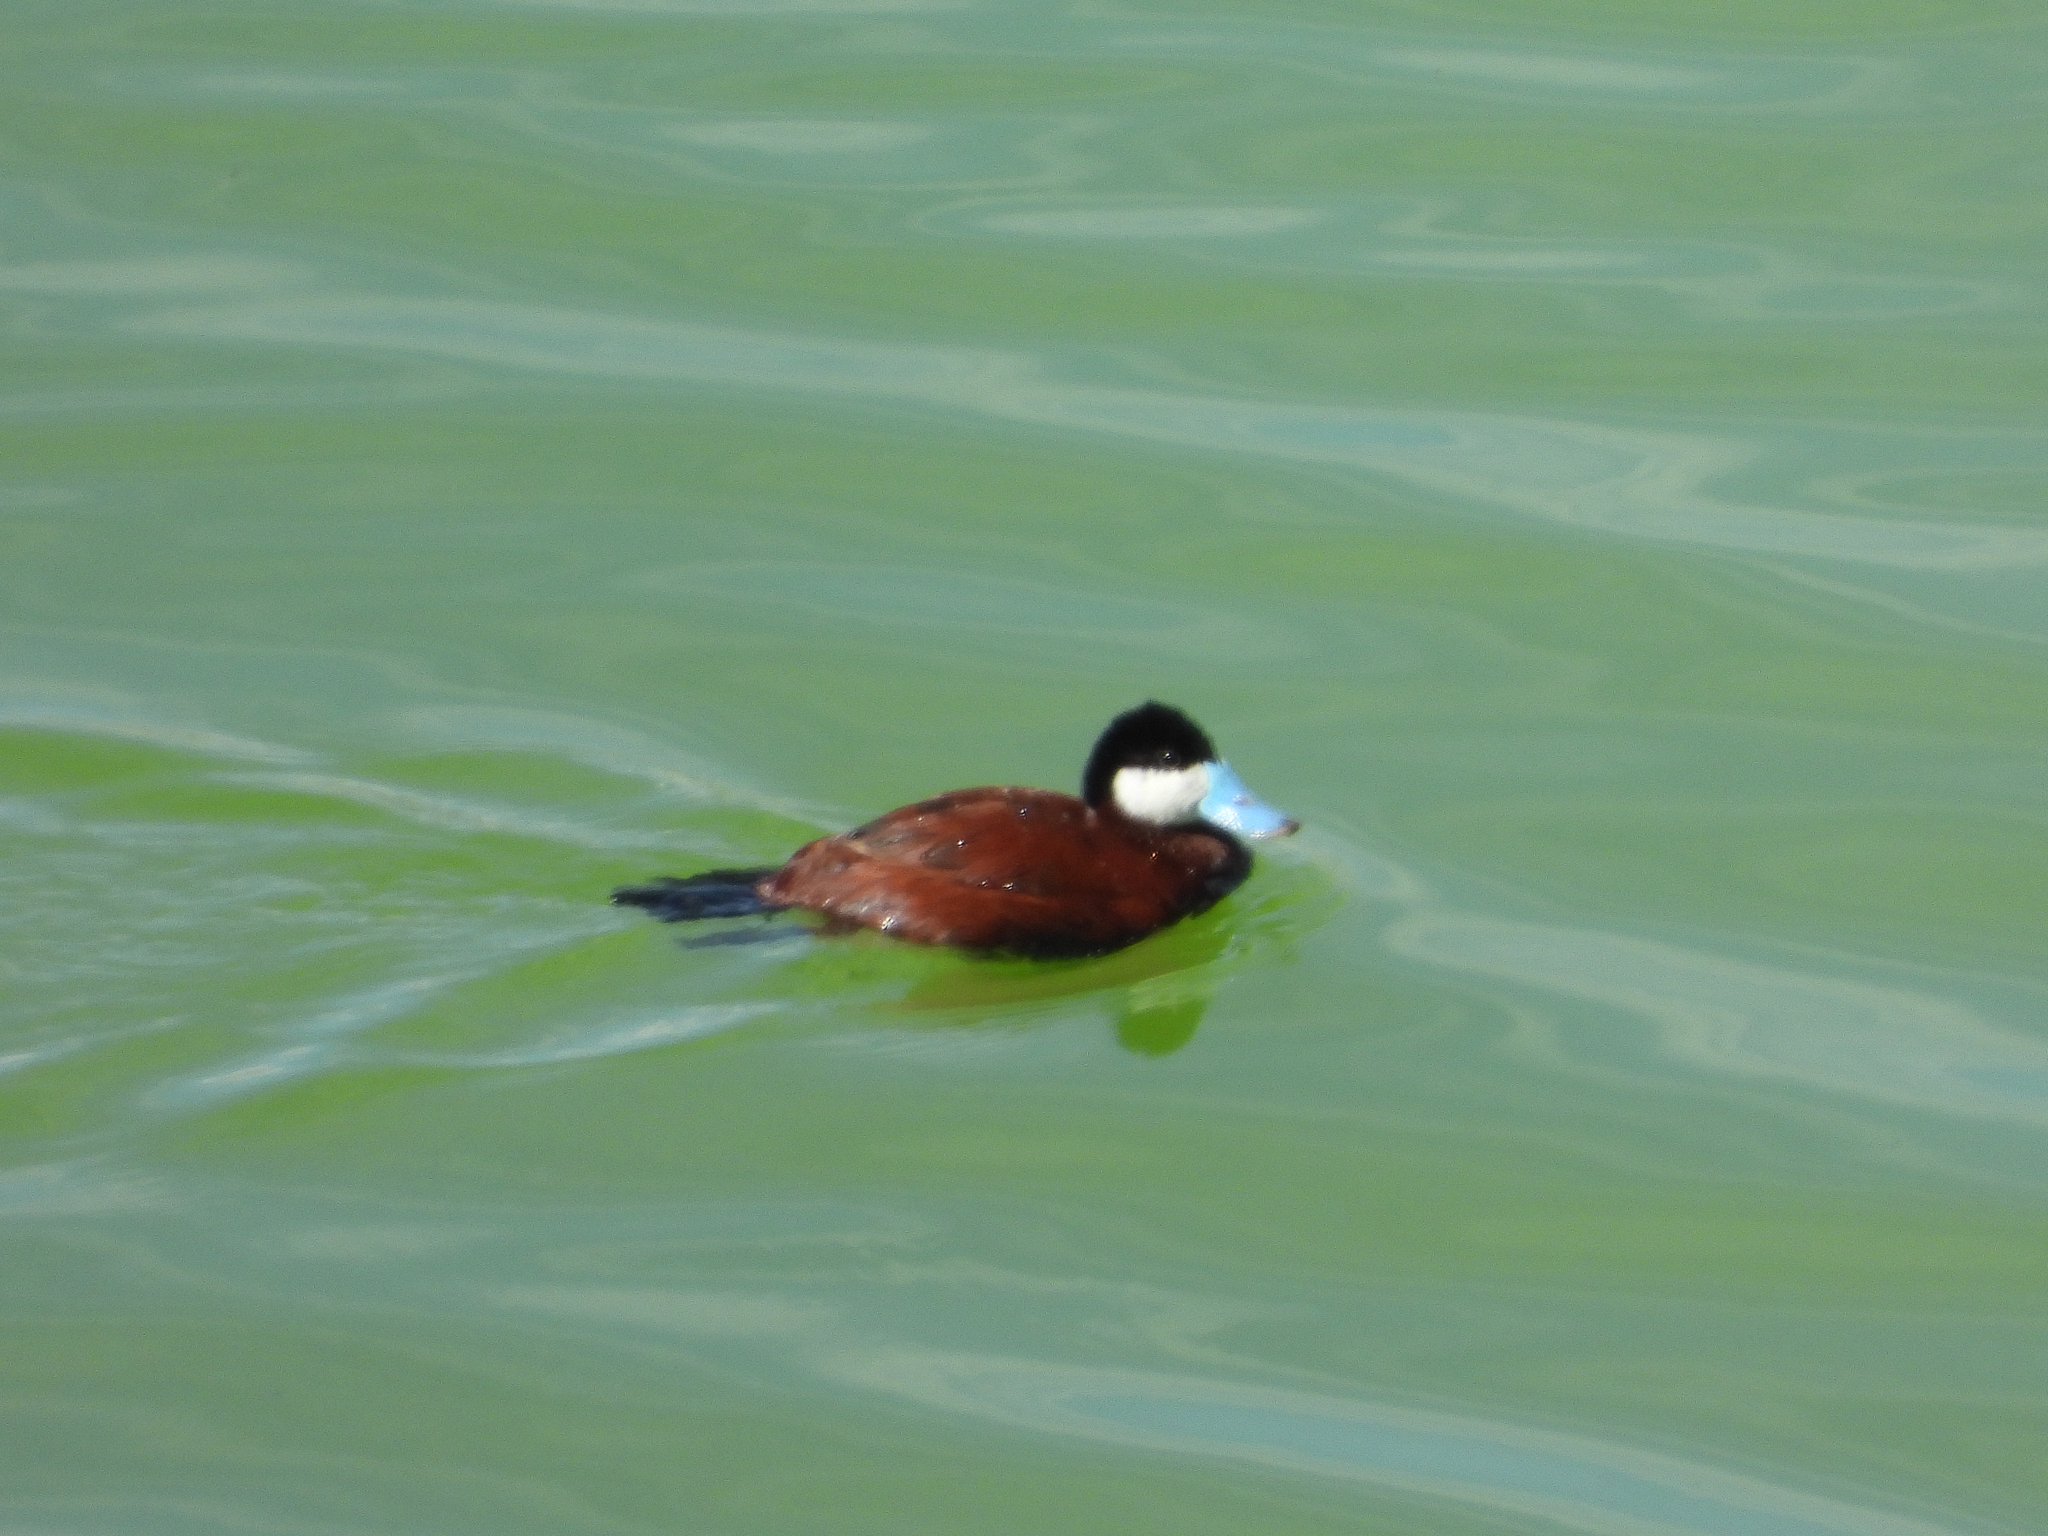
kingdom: Animalia
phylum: Chordata
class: Aves
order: Anseriformes
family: Anatidae
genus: Oxyura
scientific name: Oxyura jamaicensis
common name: Ruddy duck
